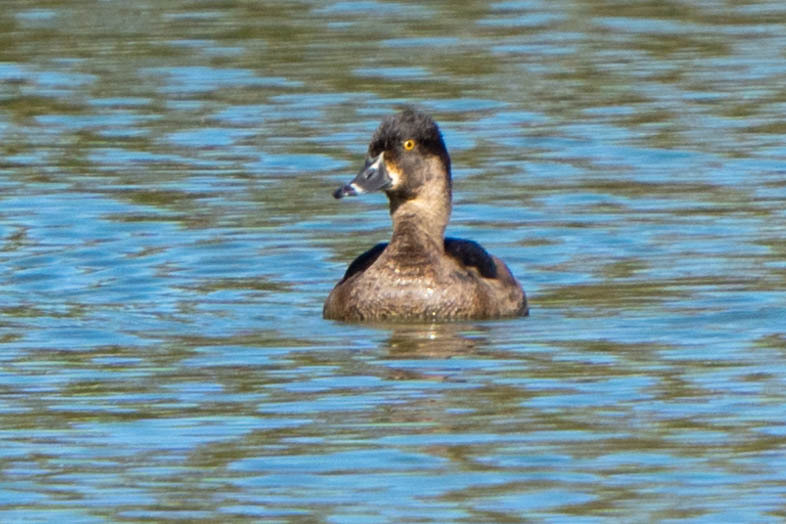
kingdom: Animalia
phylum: Chordata
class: Aves
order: Anseriformes
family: Anatidae
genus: Aythya
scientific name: Aythya collaris
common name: Ring-necked duck
